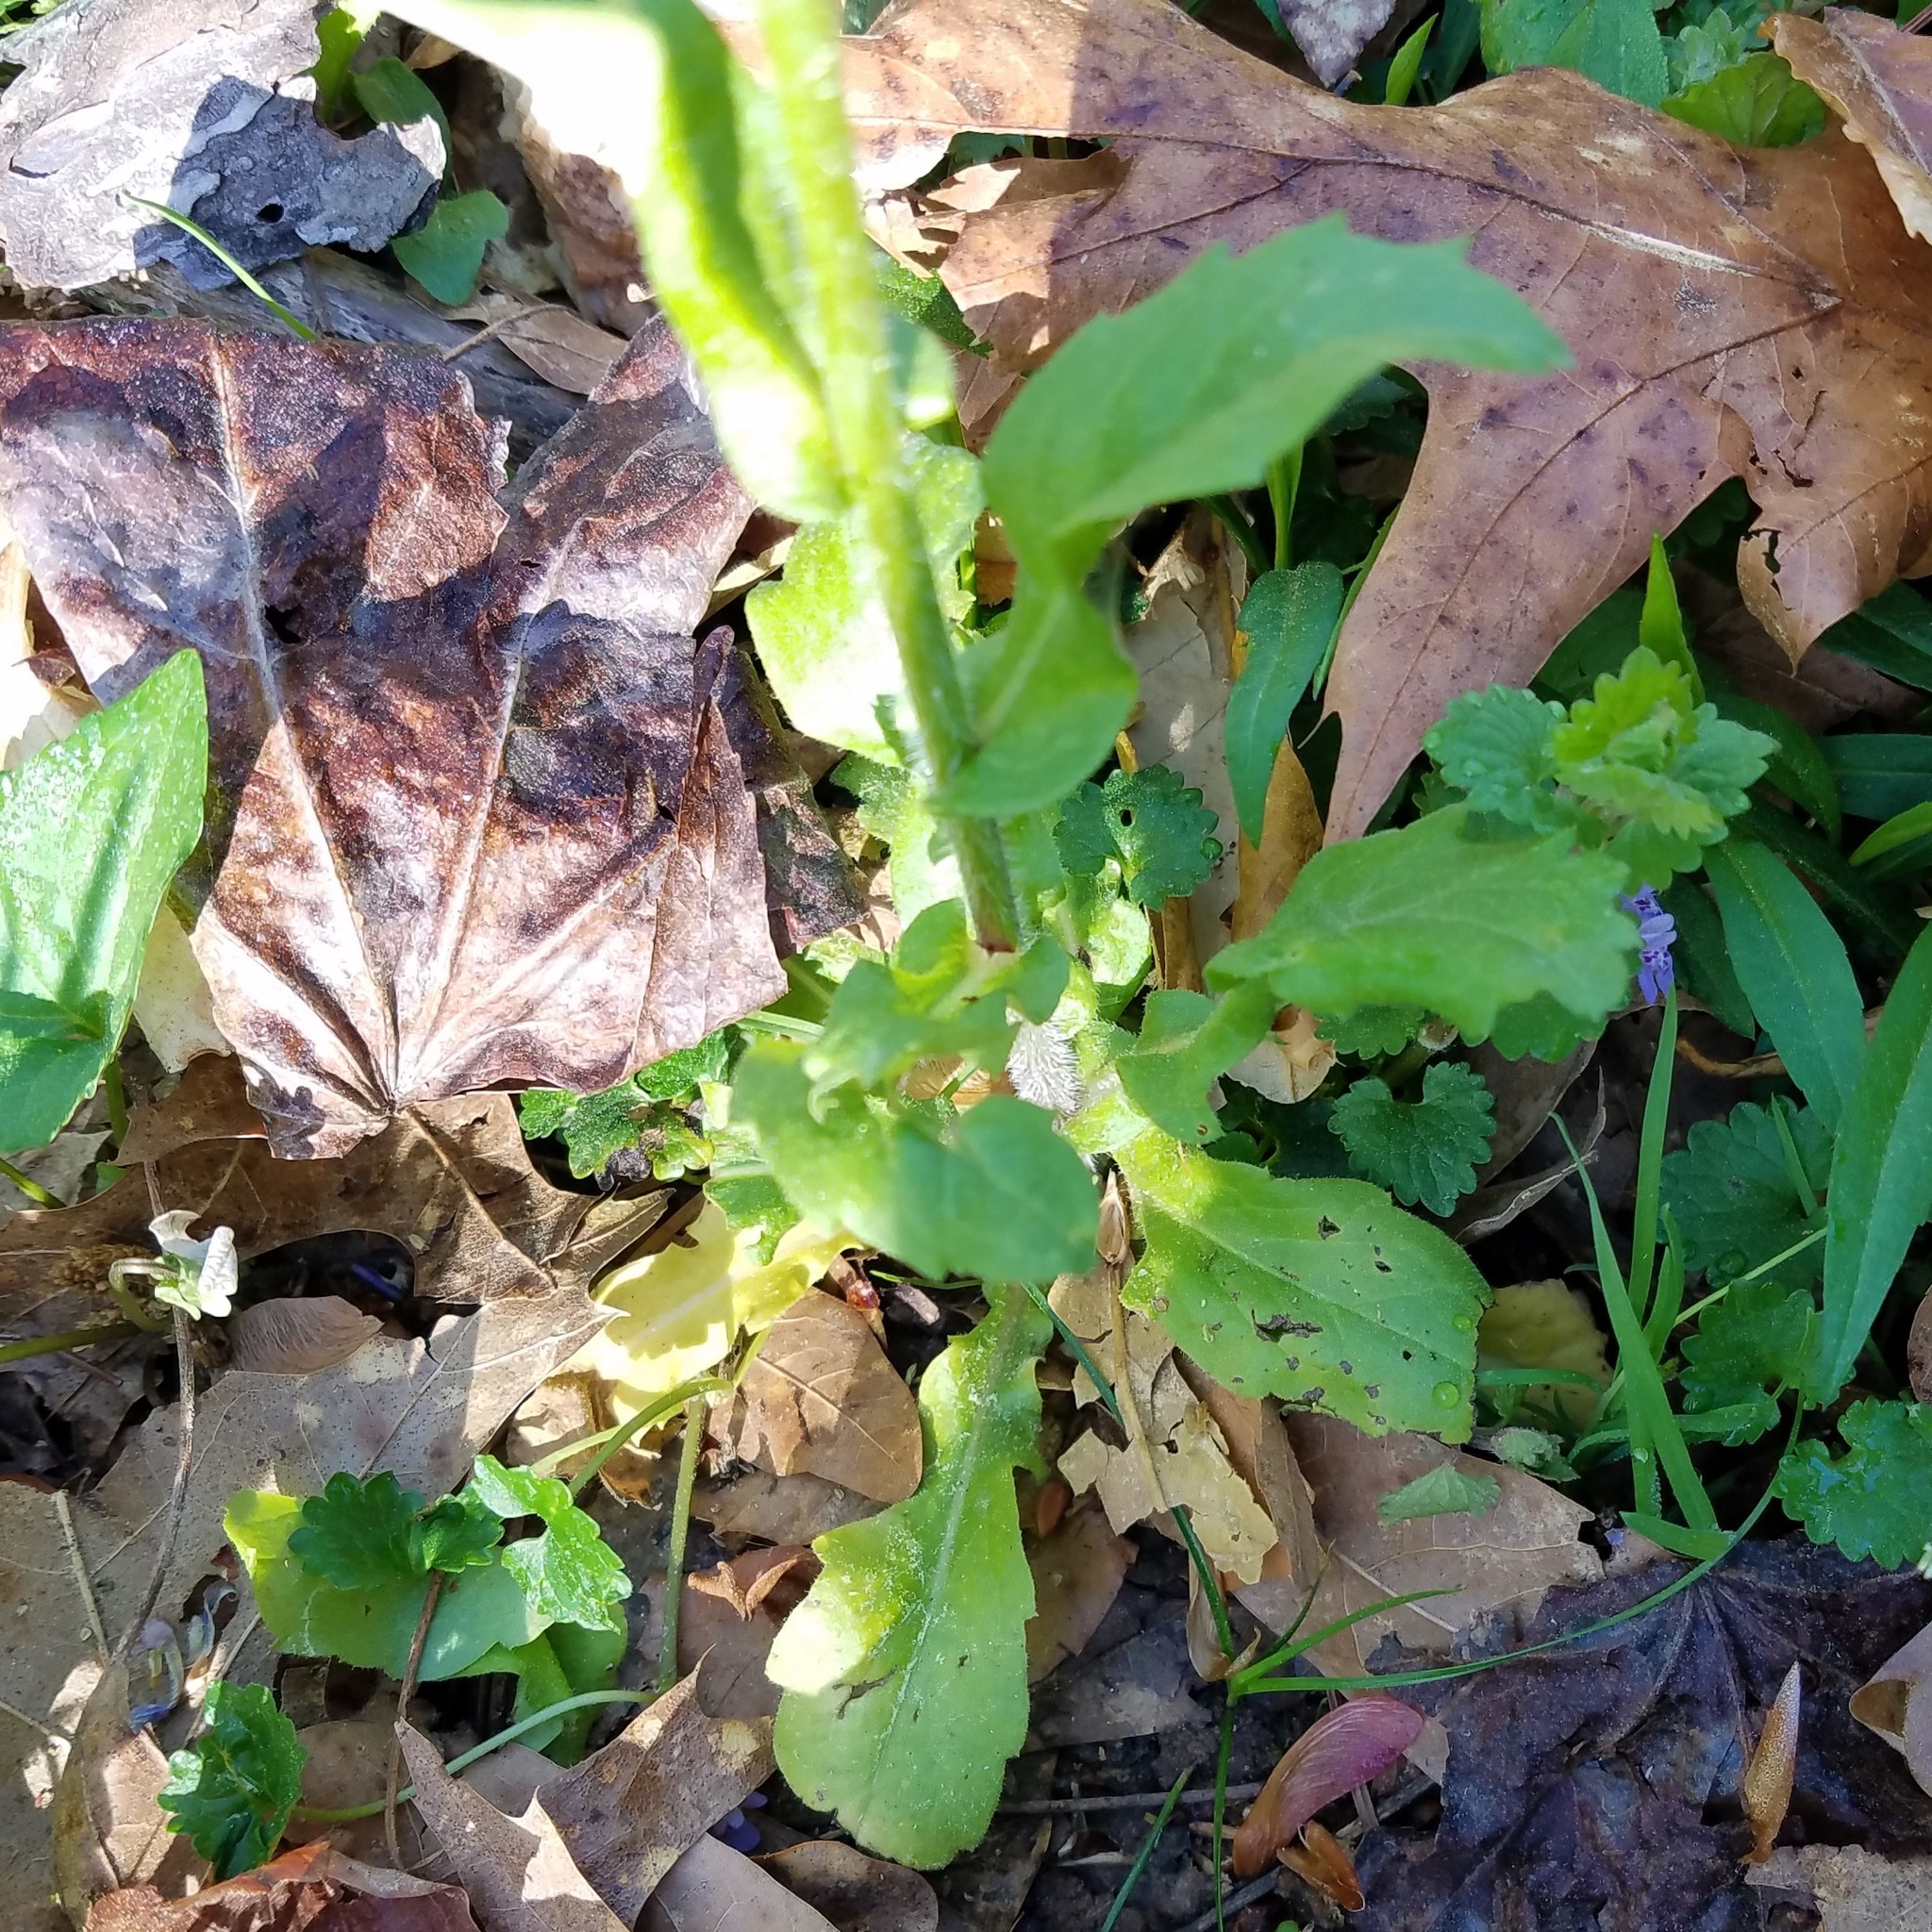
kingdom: Plantae
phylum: Tracheophyta
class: Magnoliopsida
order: Asterales
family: Asteraceae
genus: Erigeron
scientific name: Erigeron philadelphicus
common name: Robin's-plantain
